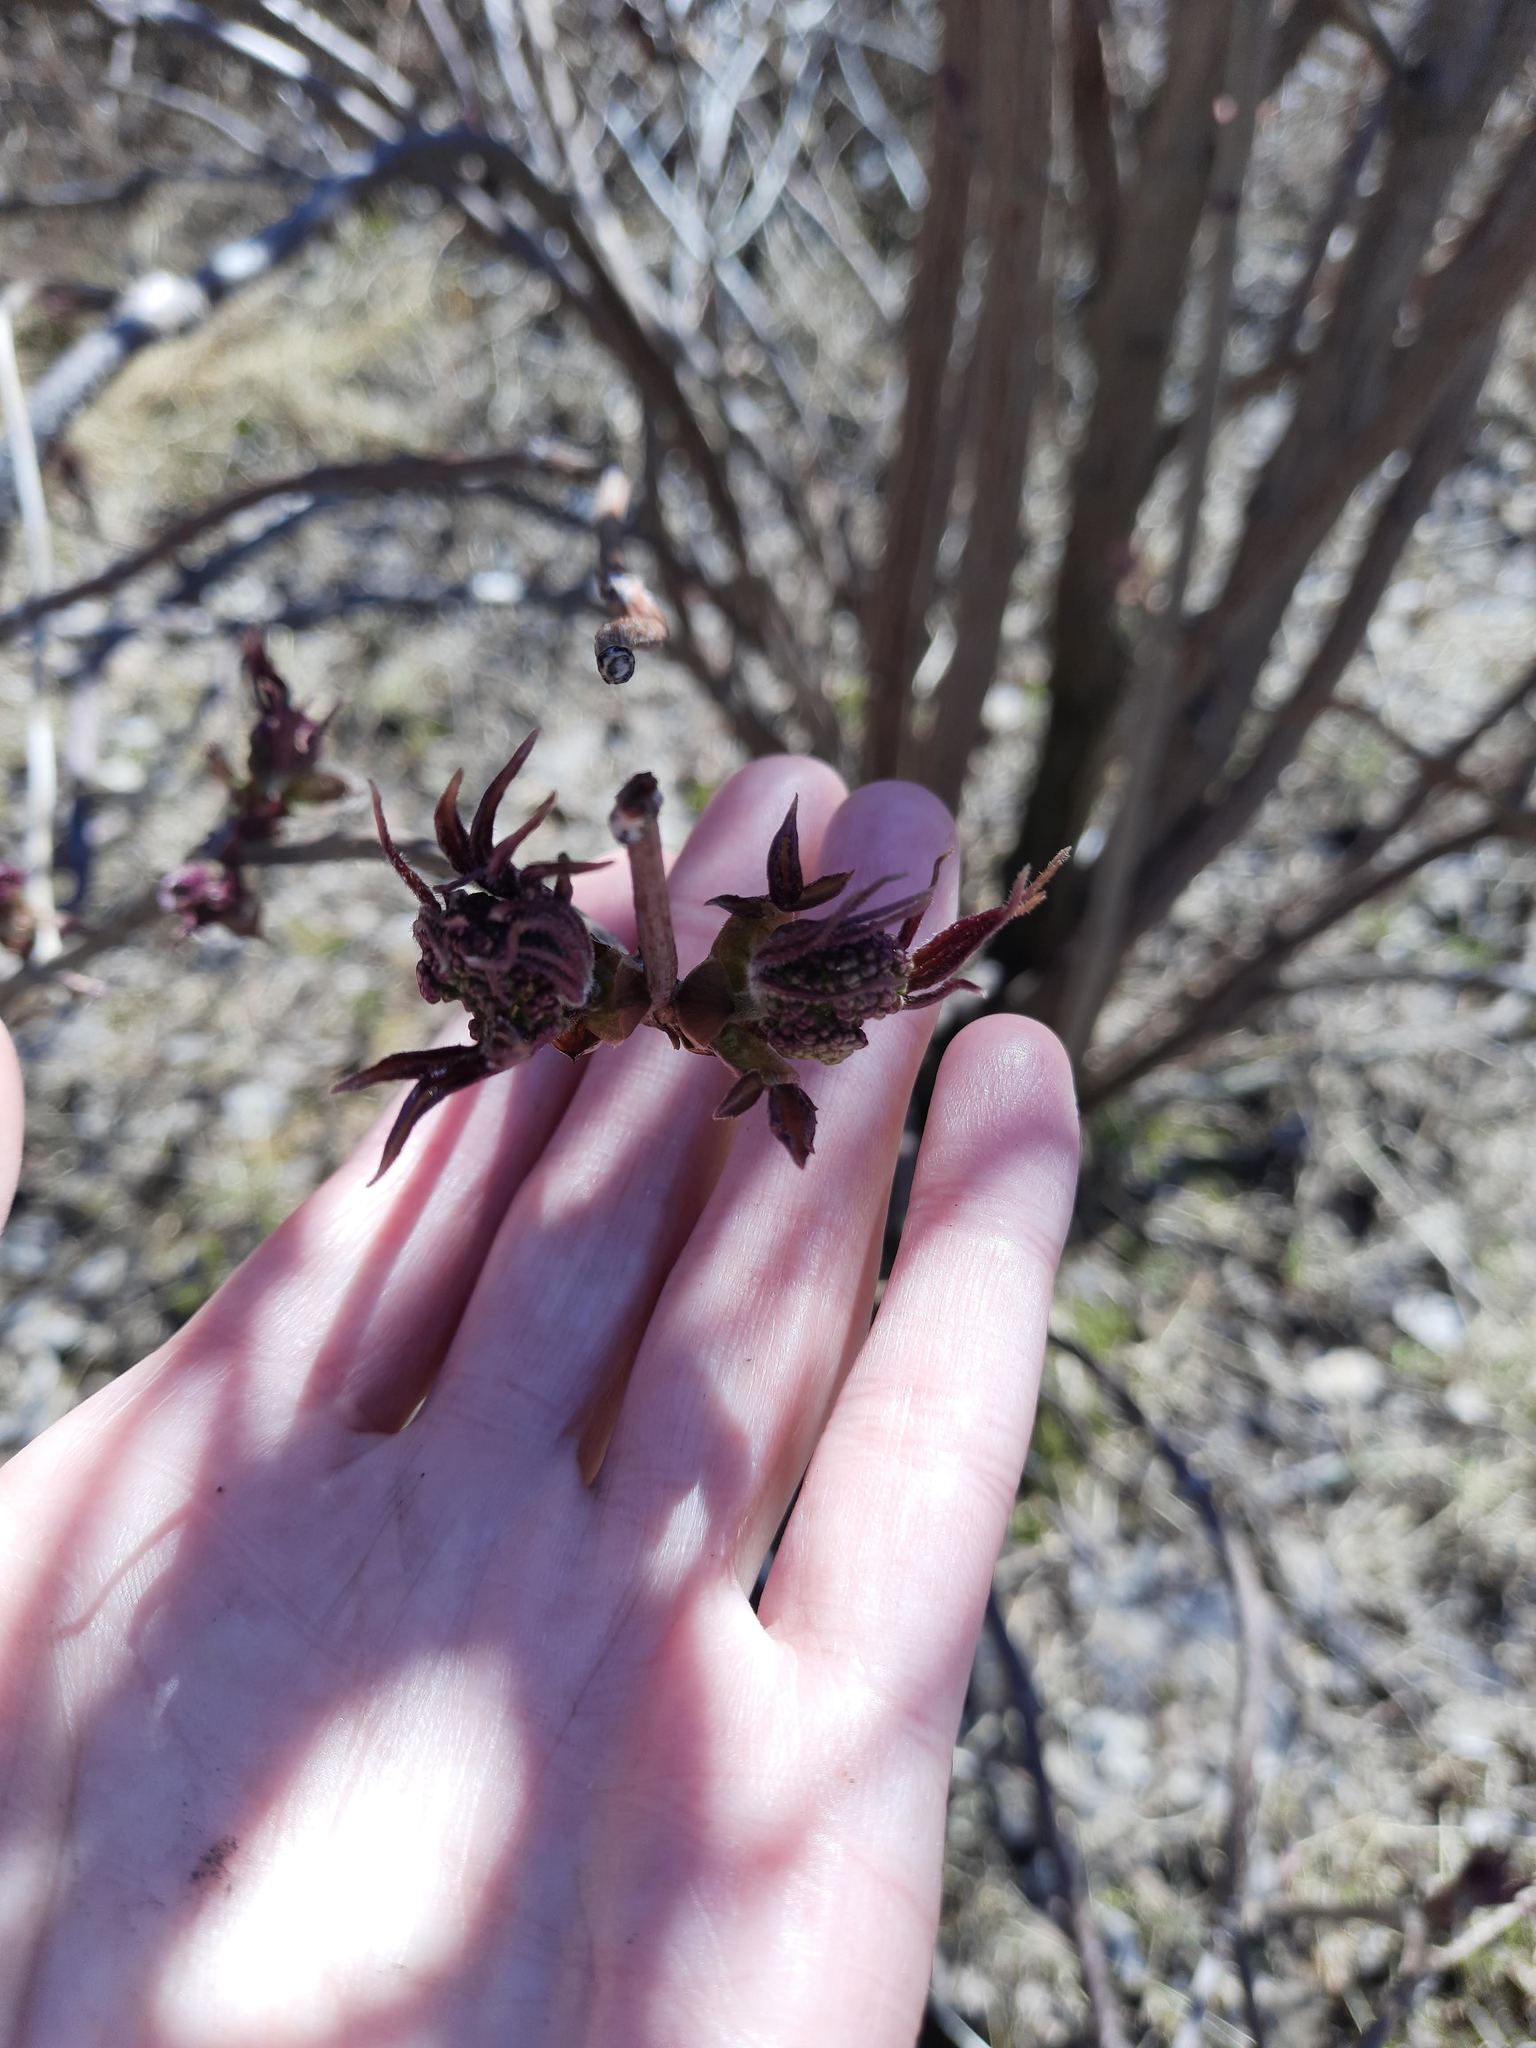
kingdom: Plantae
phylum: Tracheophyta
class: Magnoliopsida
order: Dipsacales
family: Viburnaceae
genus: Sambucus
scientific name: Sambucus sibirica
